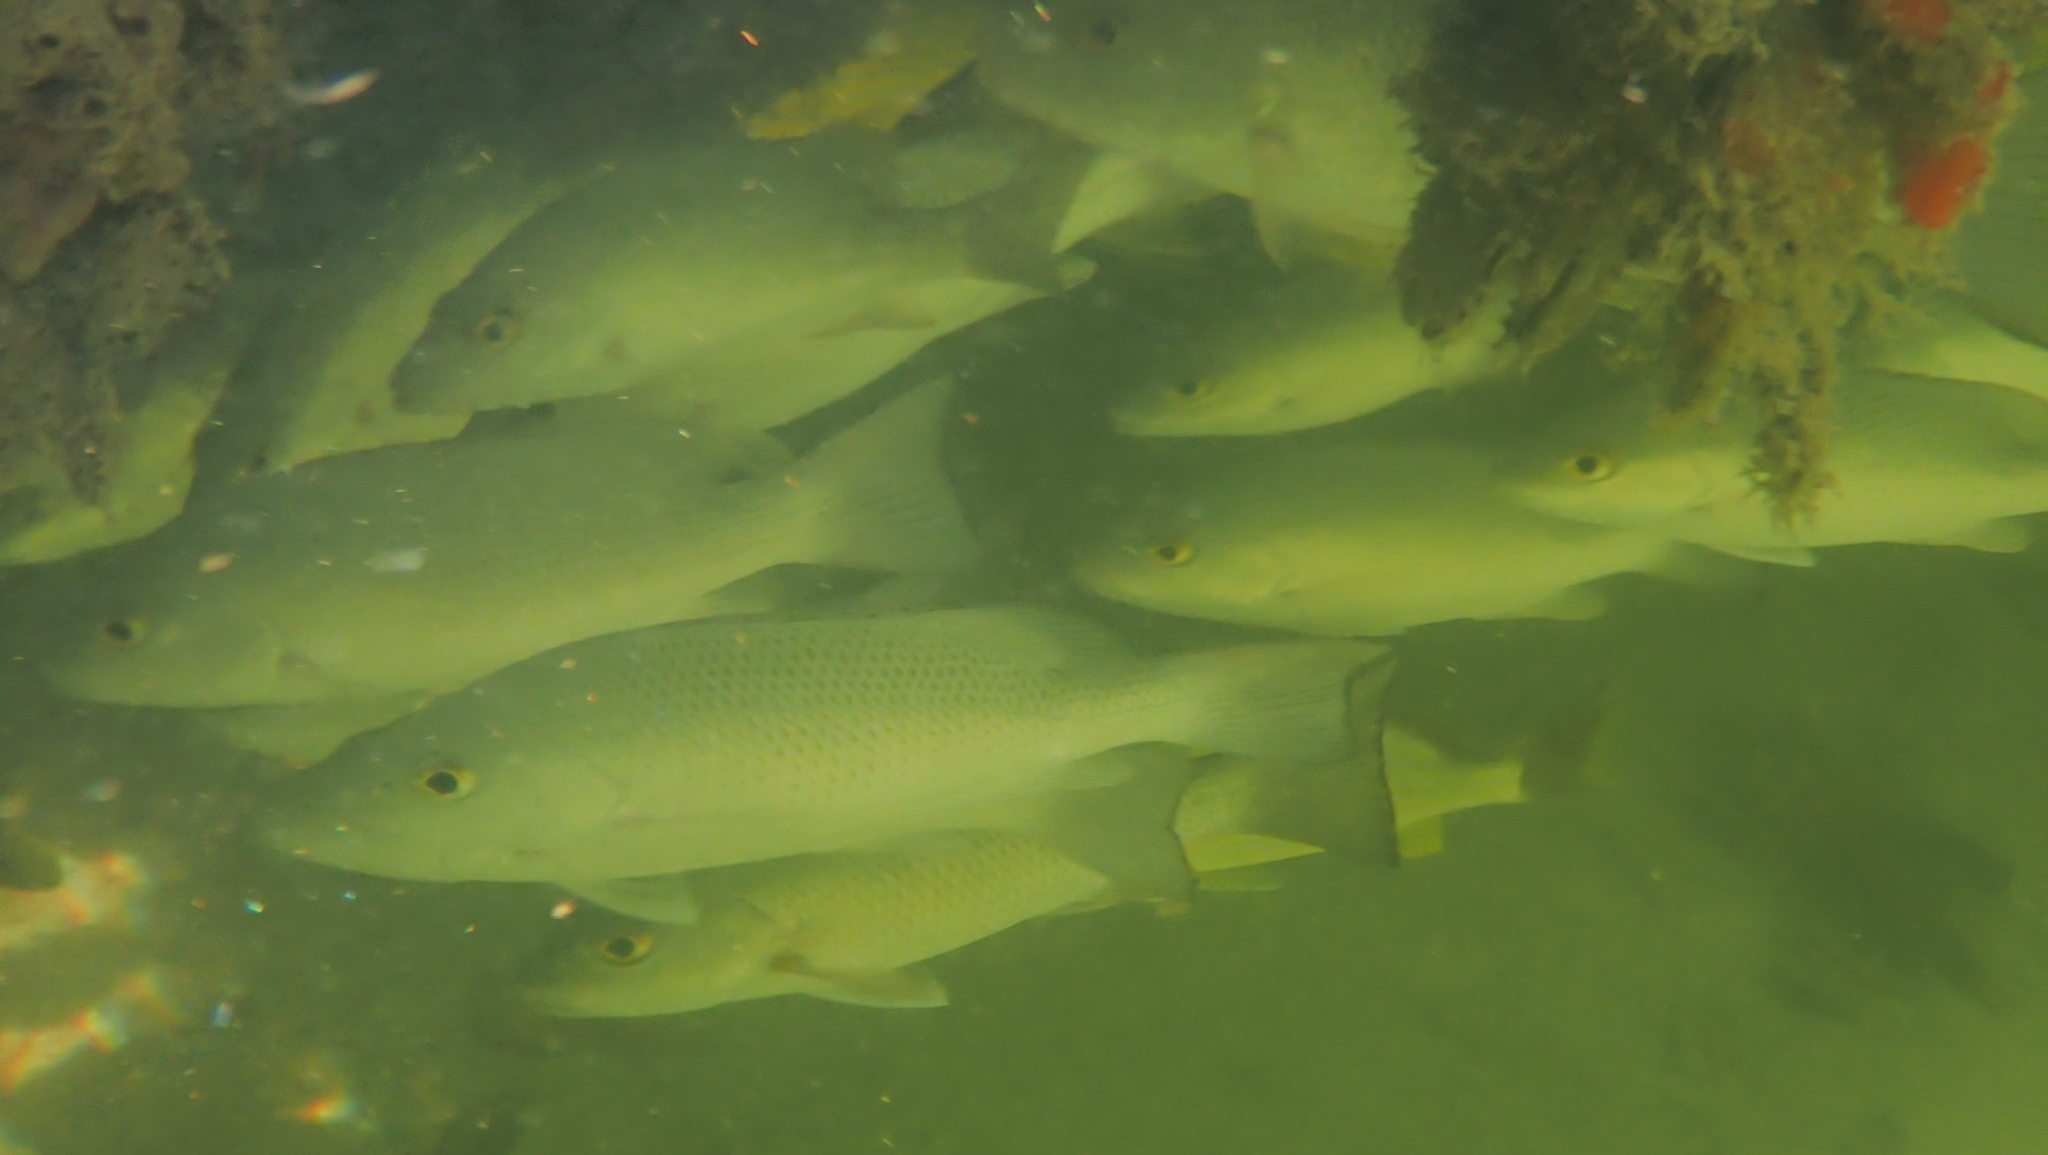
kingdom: Animalia
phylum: Chordata
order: Perciformes
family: Lutjanidae
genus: Lutjanus
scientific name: Lutjanus griseus
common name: Gray snapper
